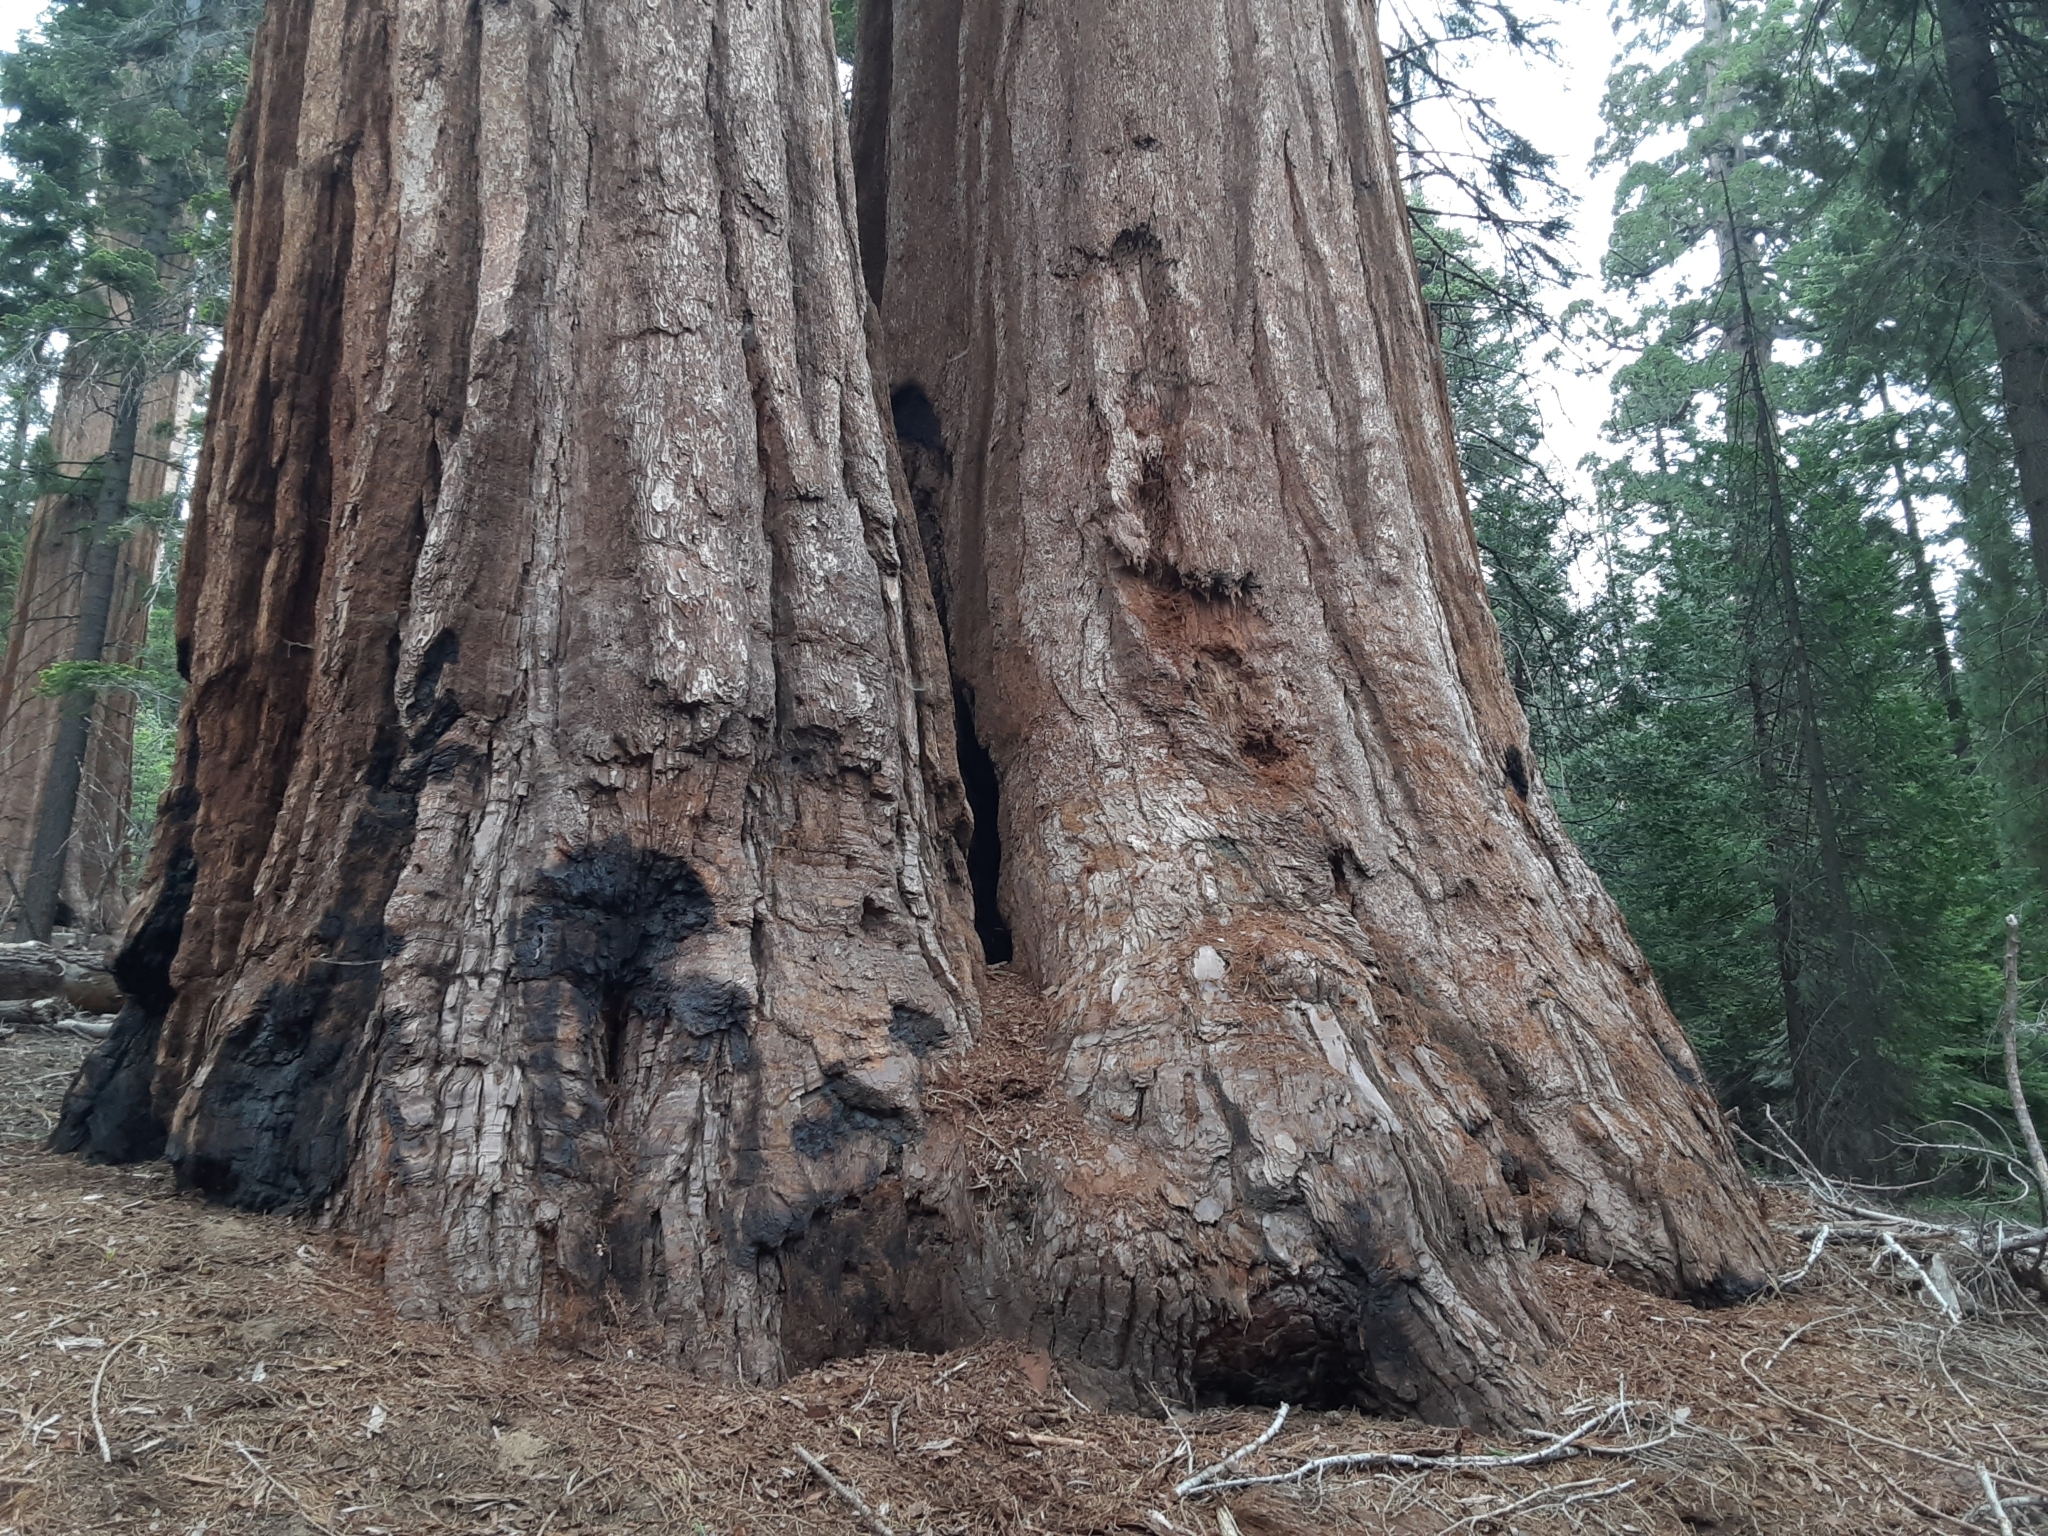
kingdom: Plantae
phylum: Tracheophyta
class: Pinopsida
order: Pinales
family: Cupressaceae
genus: Sequoiadendron
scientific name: Sequoiadendron giganteum
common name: Wellingtonia
